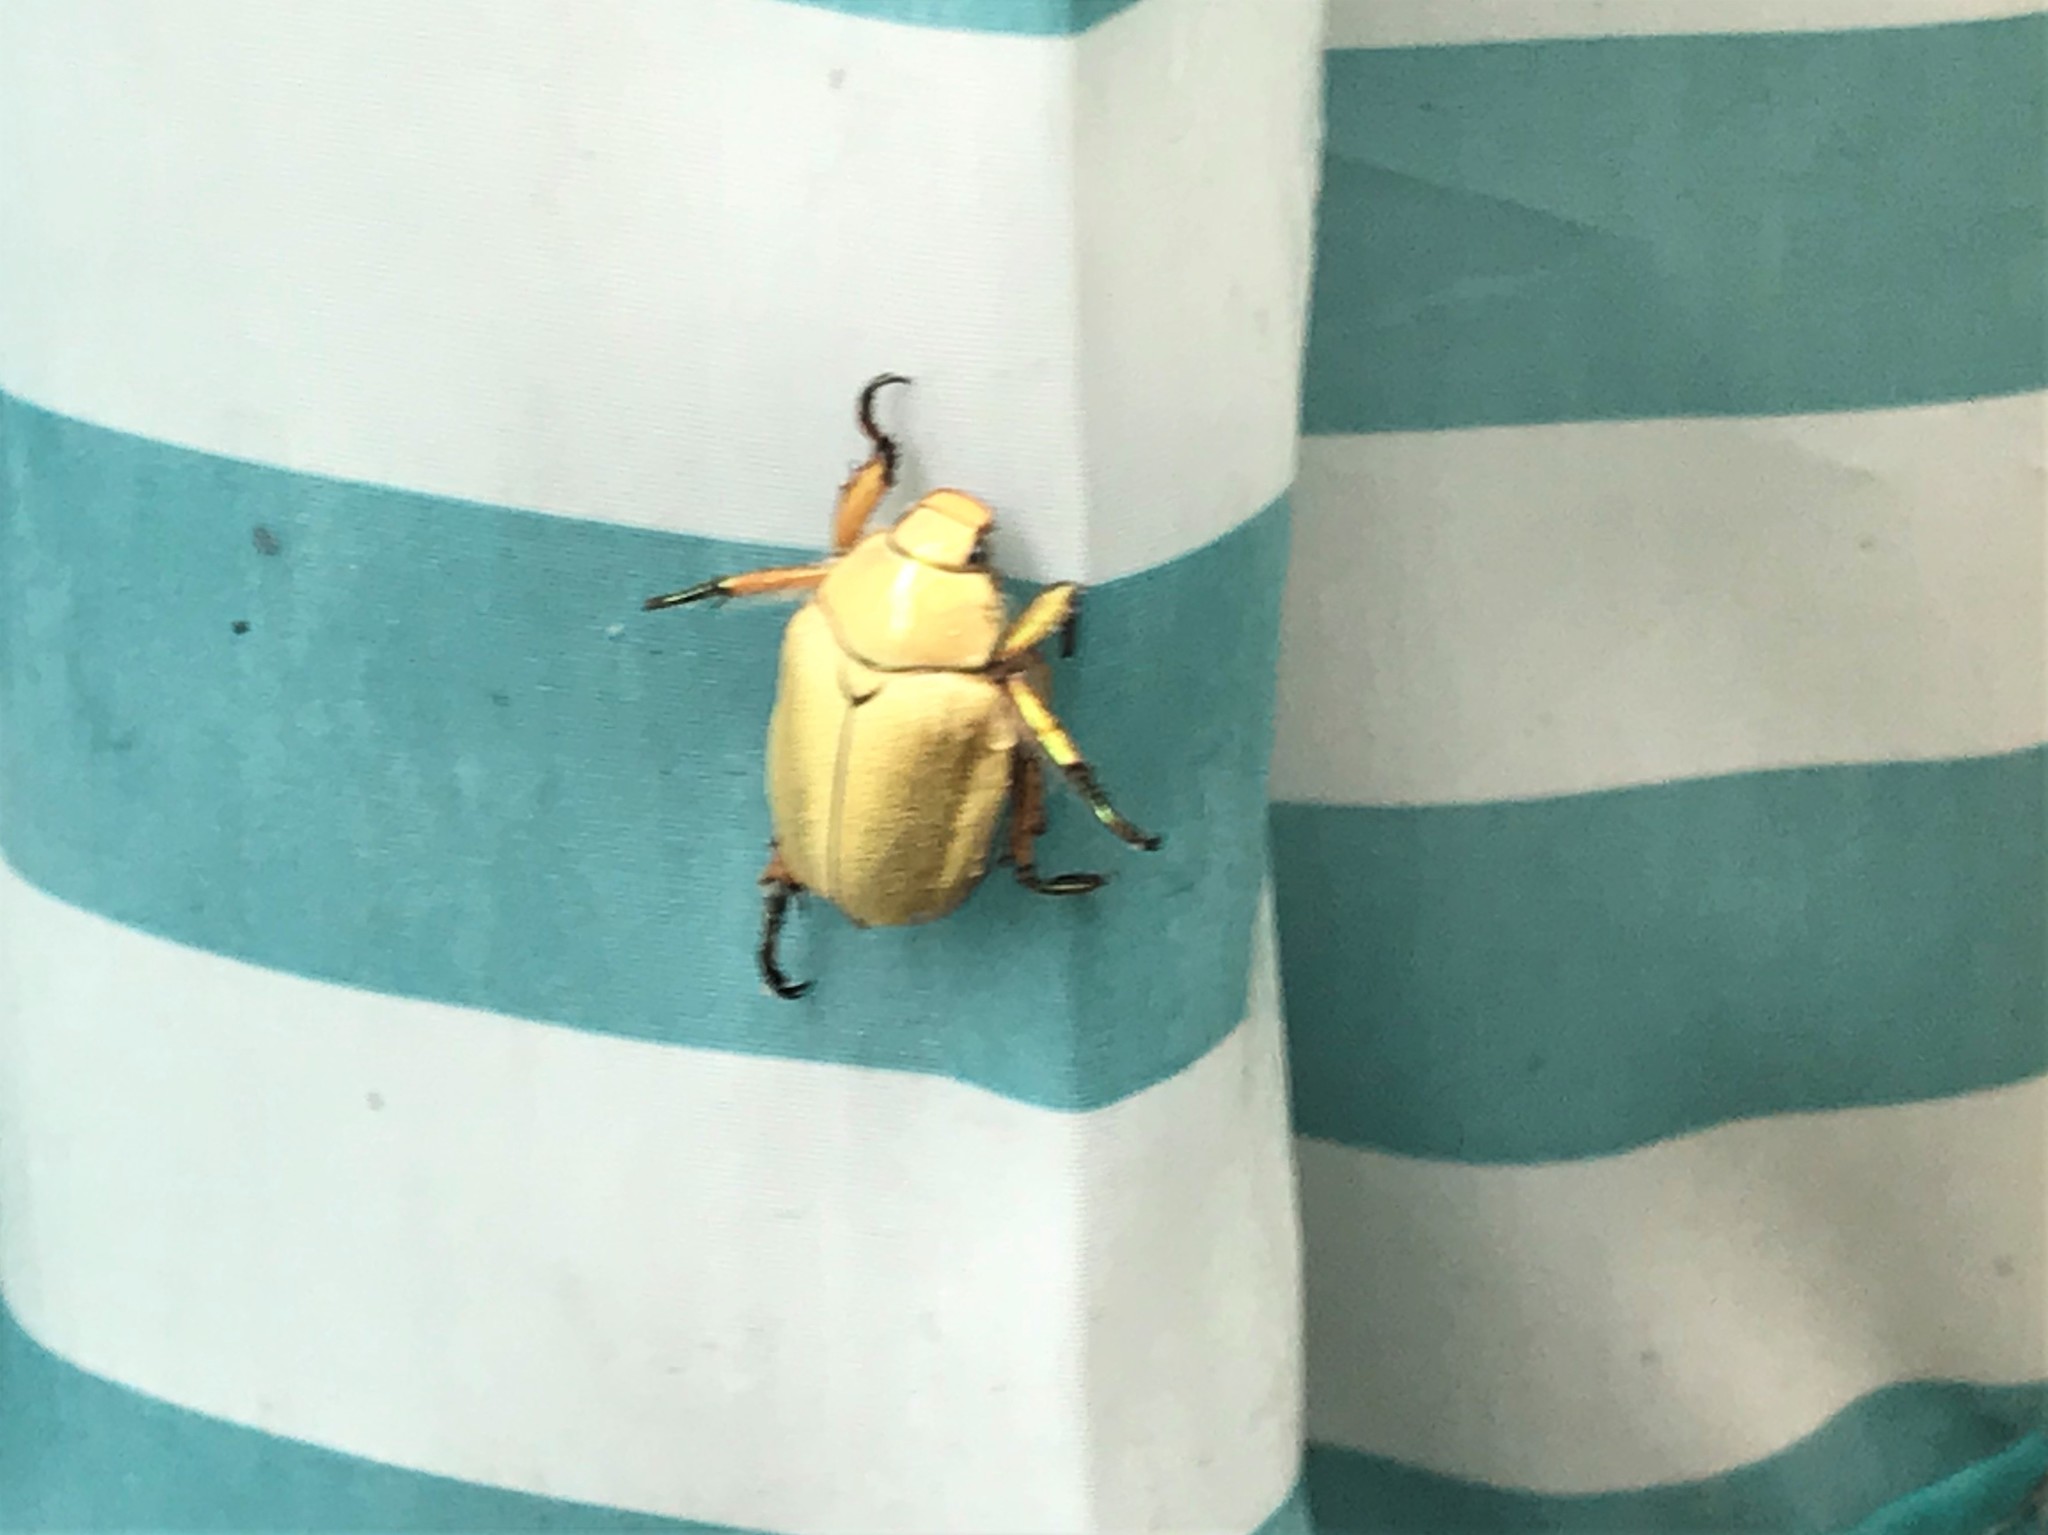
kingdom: Animalia
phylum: Arthropoda
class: Insecta
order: Coleoptera
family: Scarabaeidae
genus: Cotalpa
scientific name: Cotalpa lanigera
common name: Goldsmith beetle
